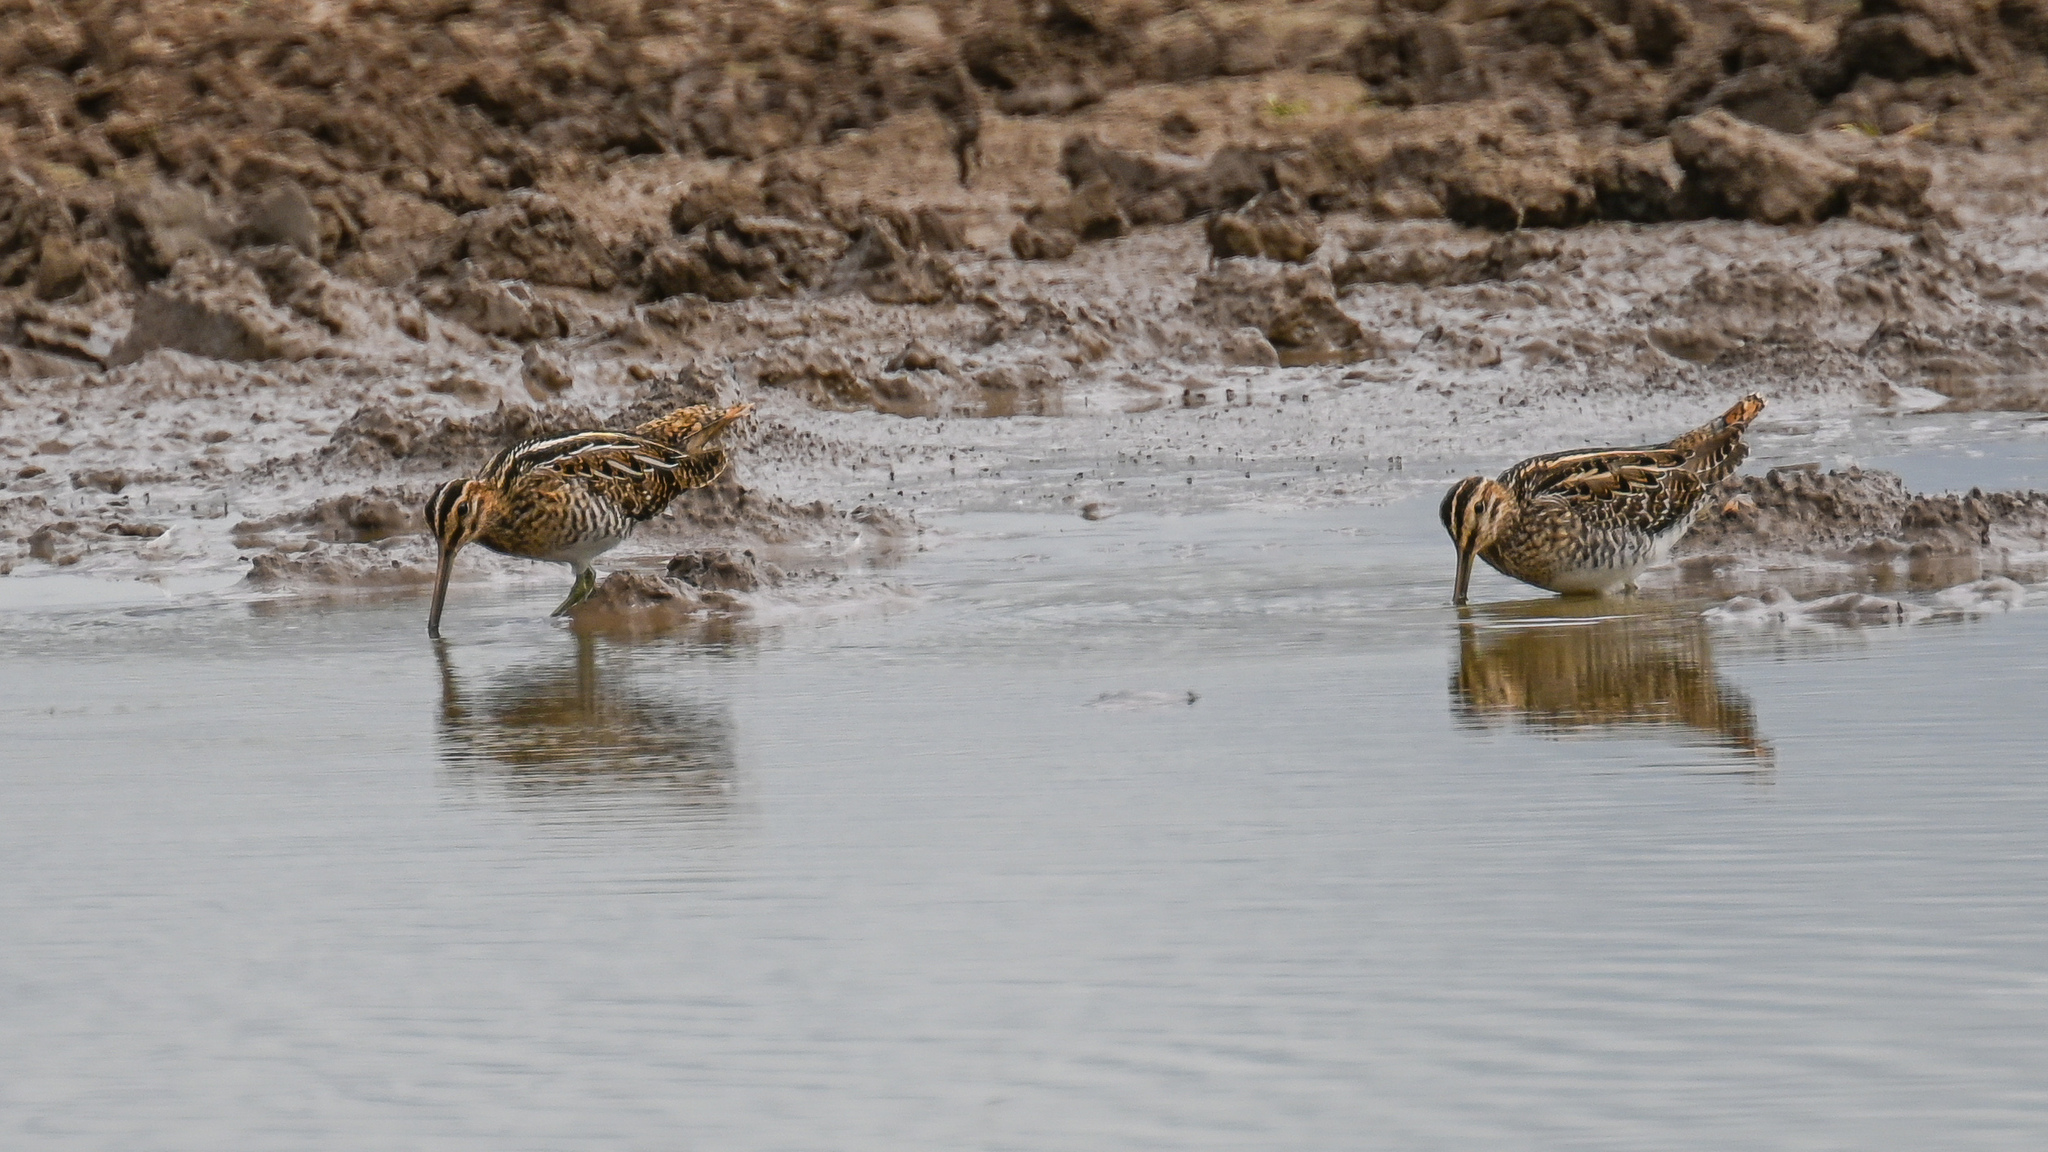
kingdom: Animalia
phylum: Chordata
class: Aves
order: Charadriiformes
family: Scolopacidae
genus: Gallinago
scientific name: Gallinago gallinago
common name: Common snipe
